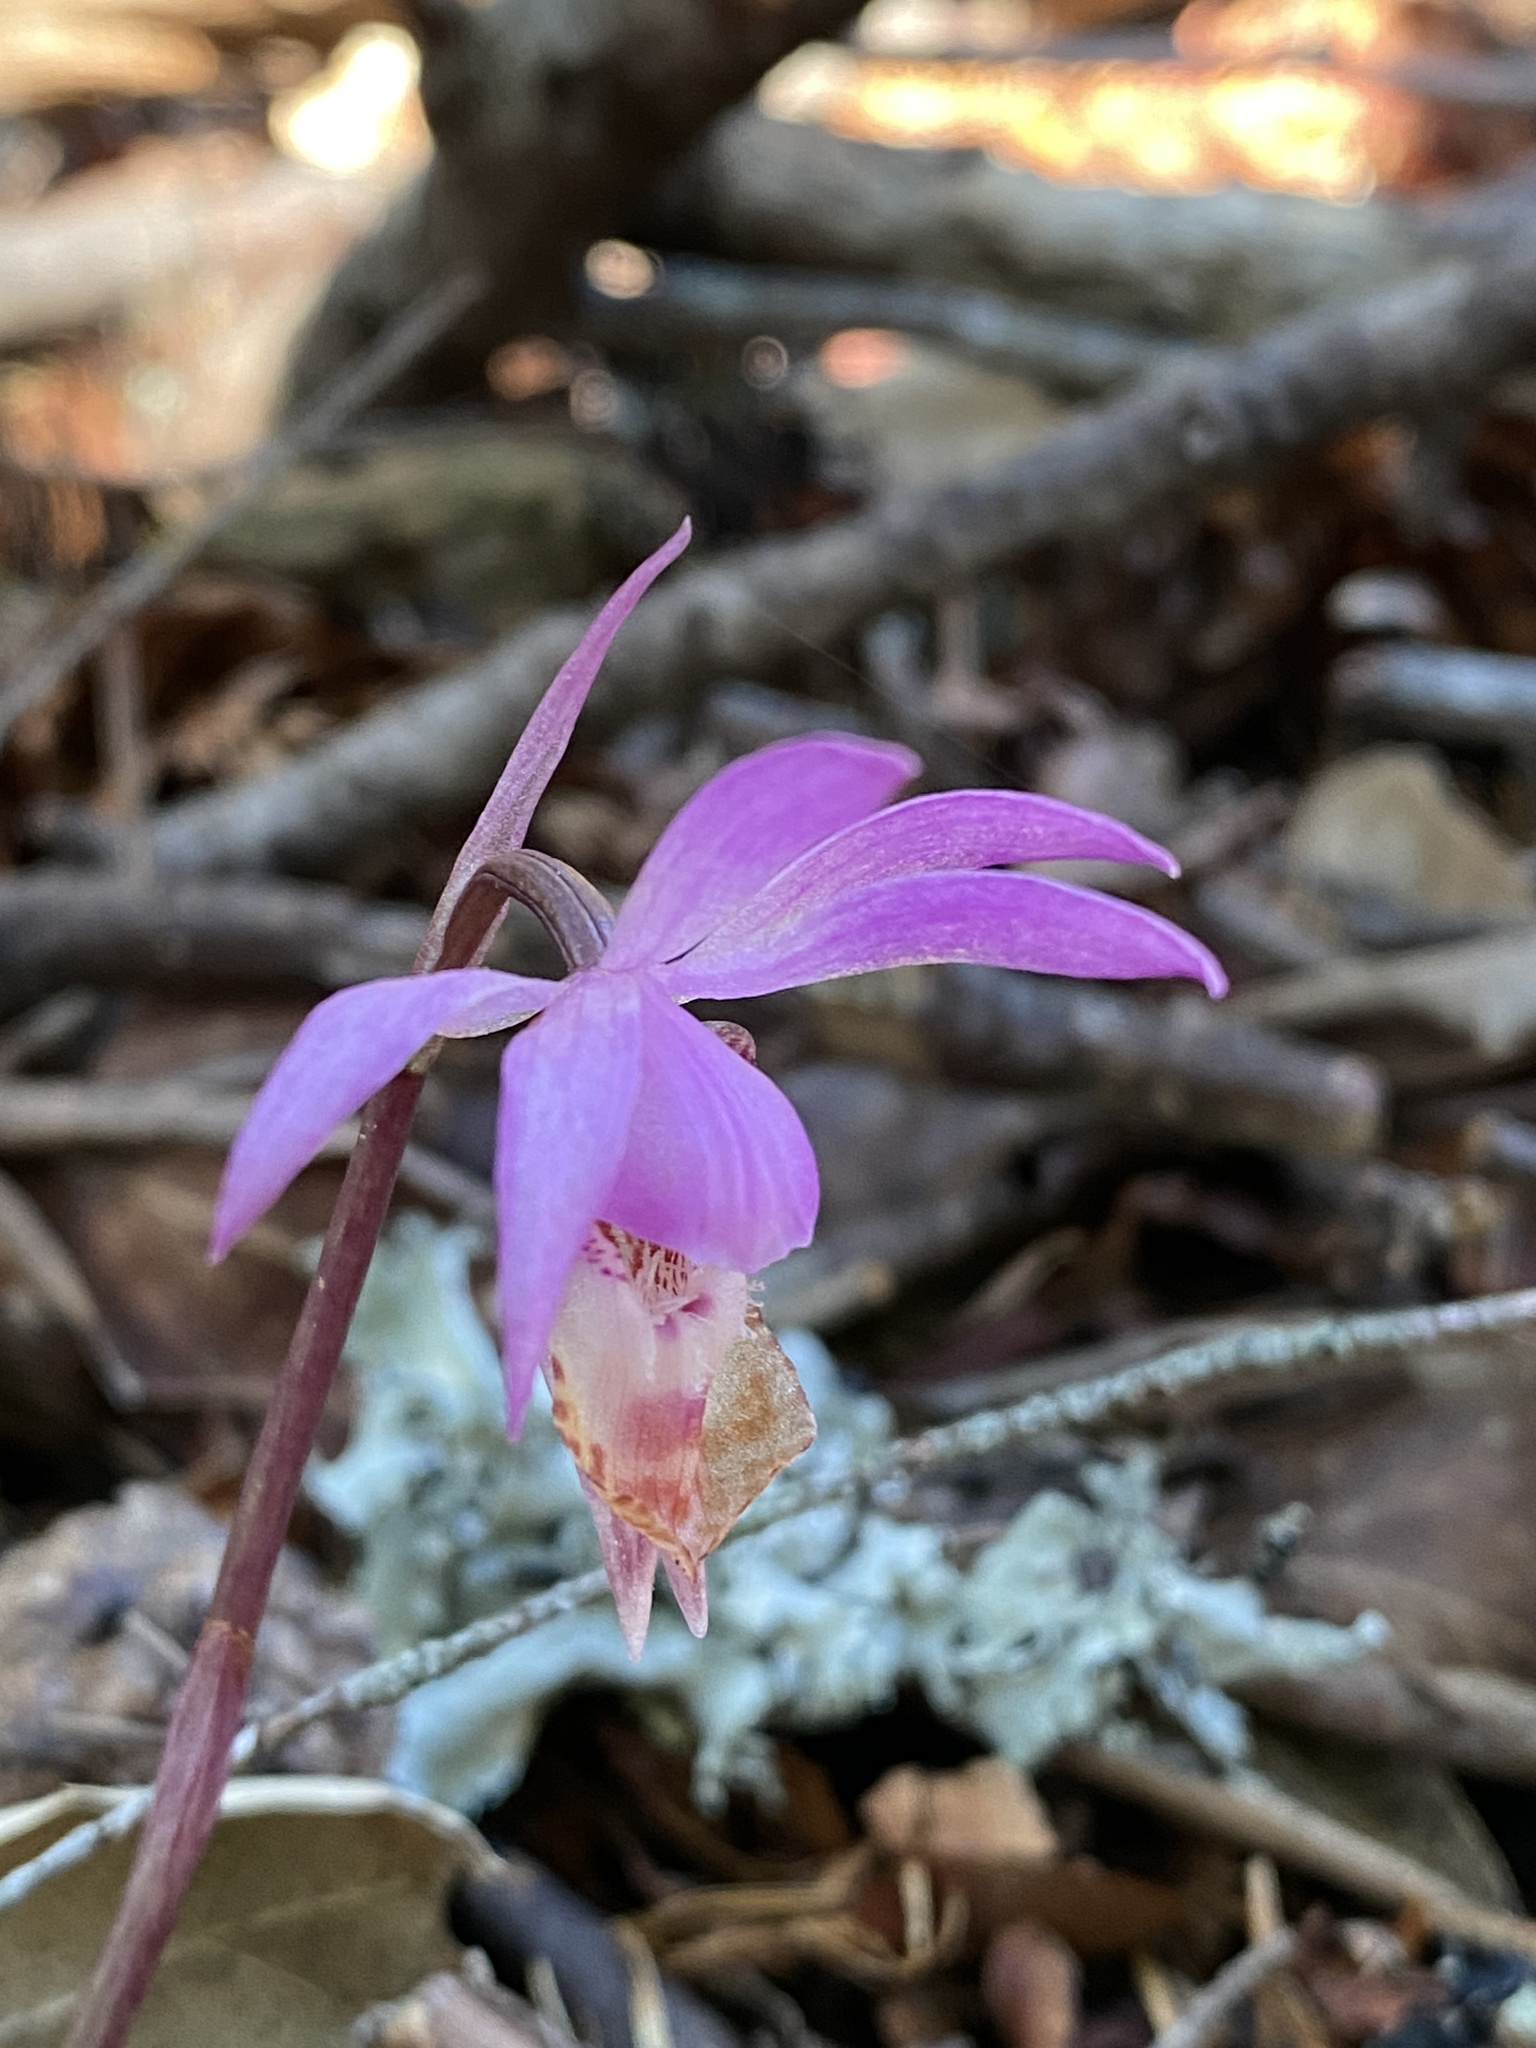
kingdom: Plantae
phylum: Tracheophyta
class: Liliopsida
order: Asparagales
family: Orchidaceae
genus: Calypso
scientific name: Calypso bulbosa
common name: Calypso
